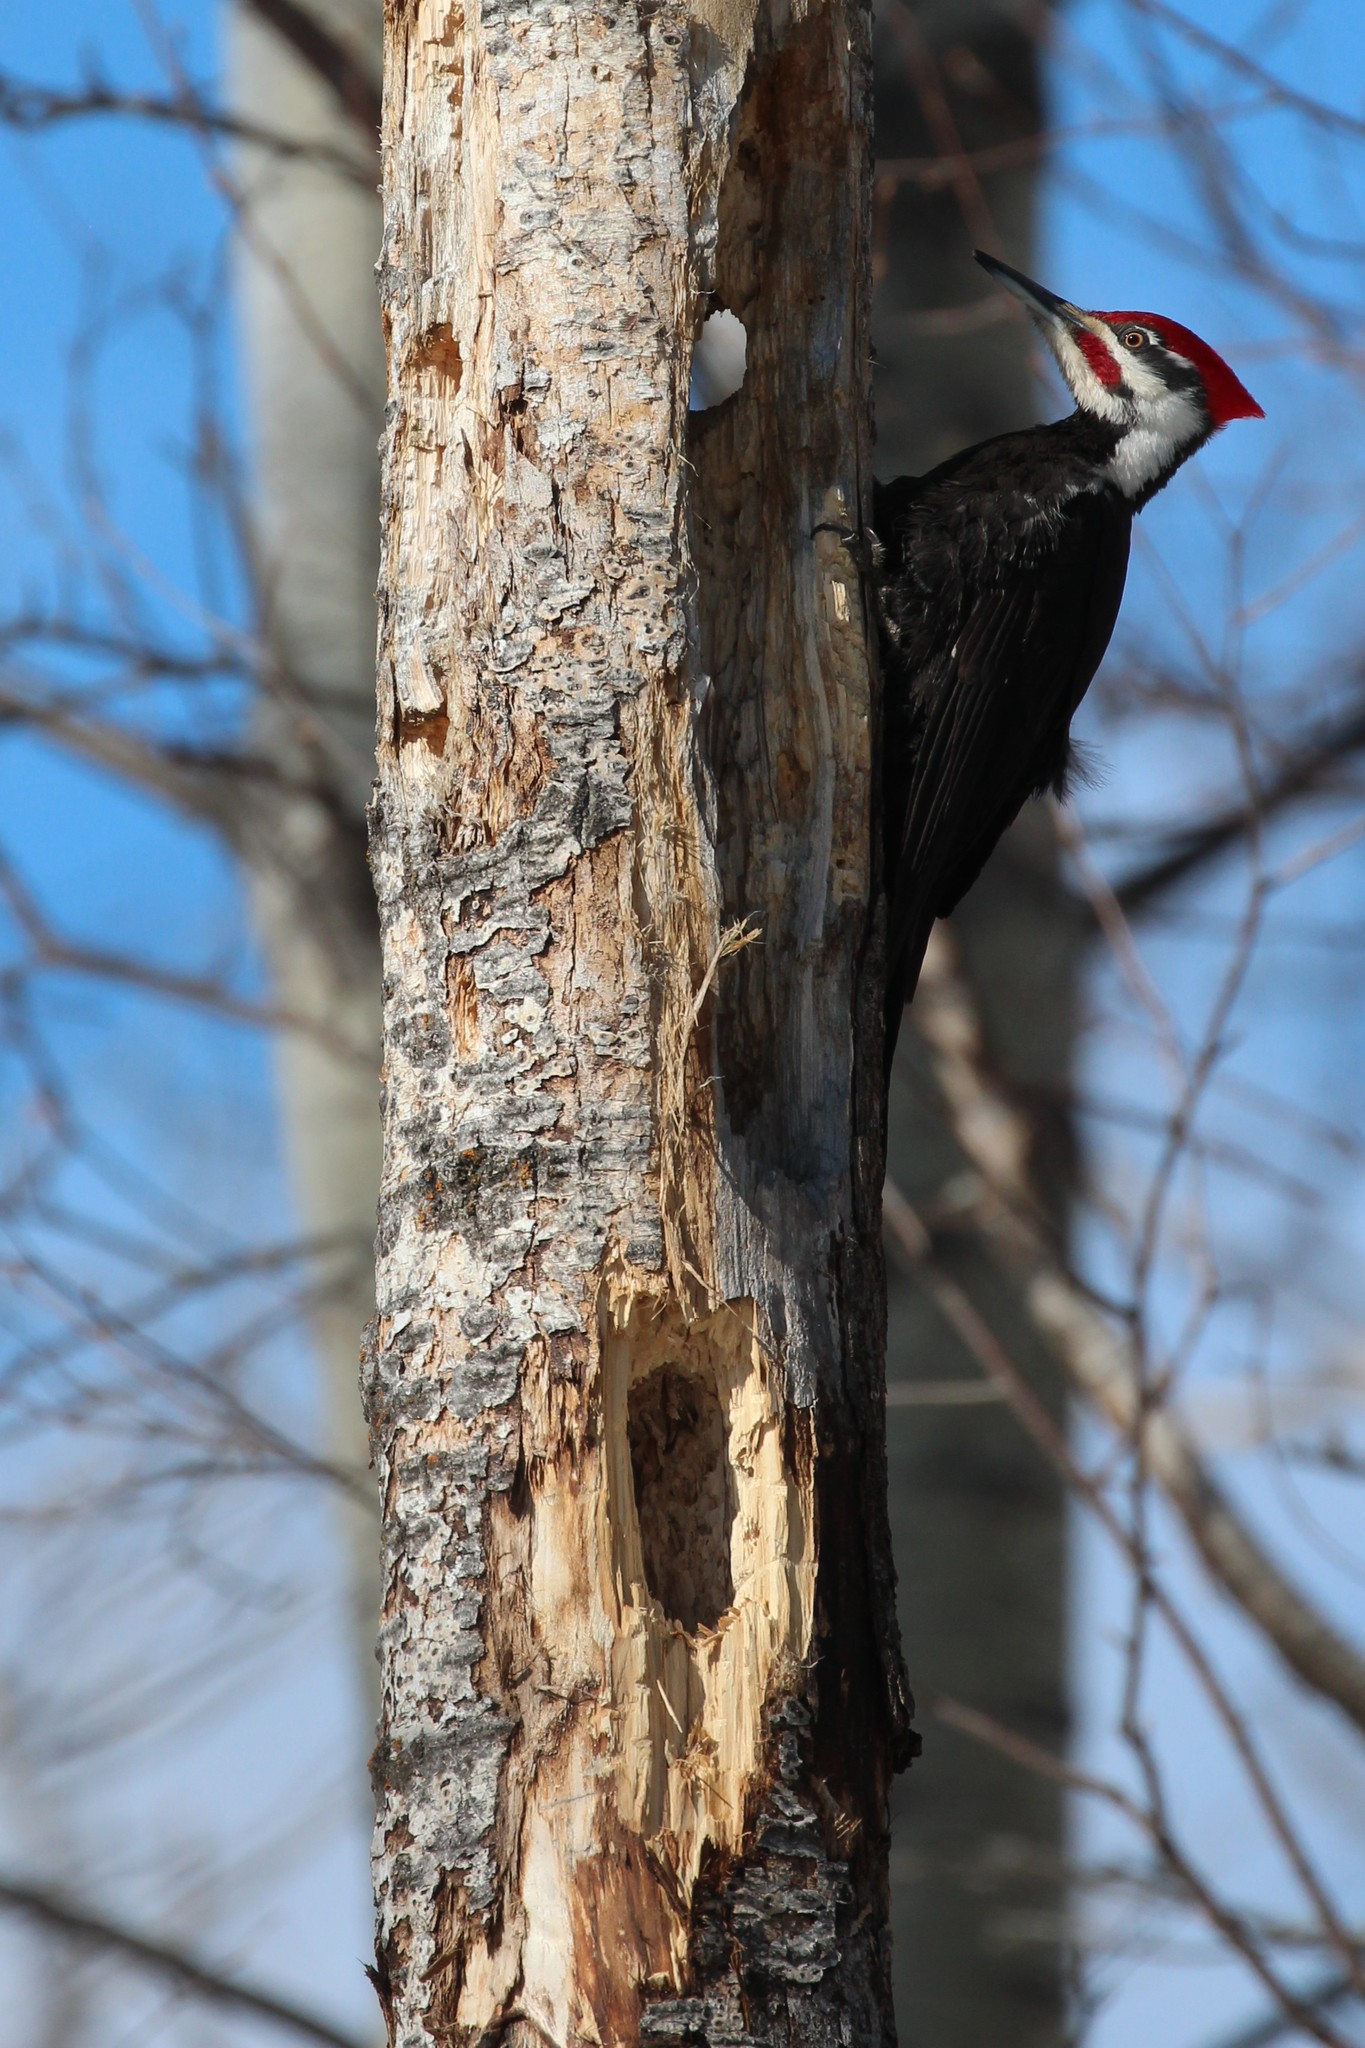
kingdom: Animalia
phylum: Chordata
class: Aves
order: Piciformes
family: Picidae
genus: Dryocopus
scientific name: Dryocopus pileatus
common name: Pileated woodpecker
